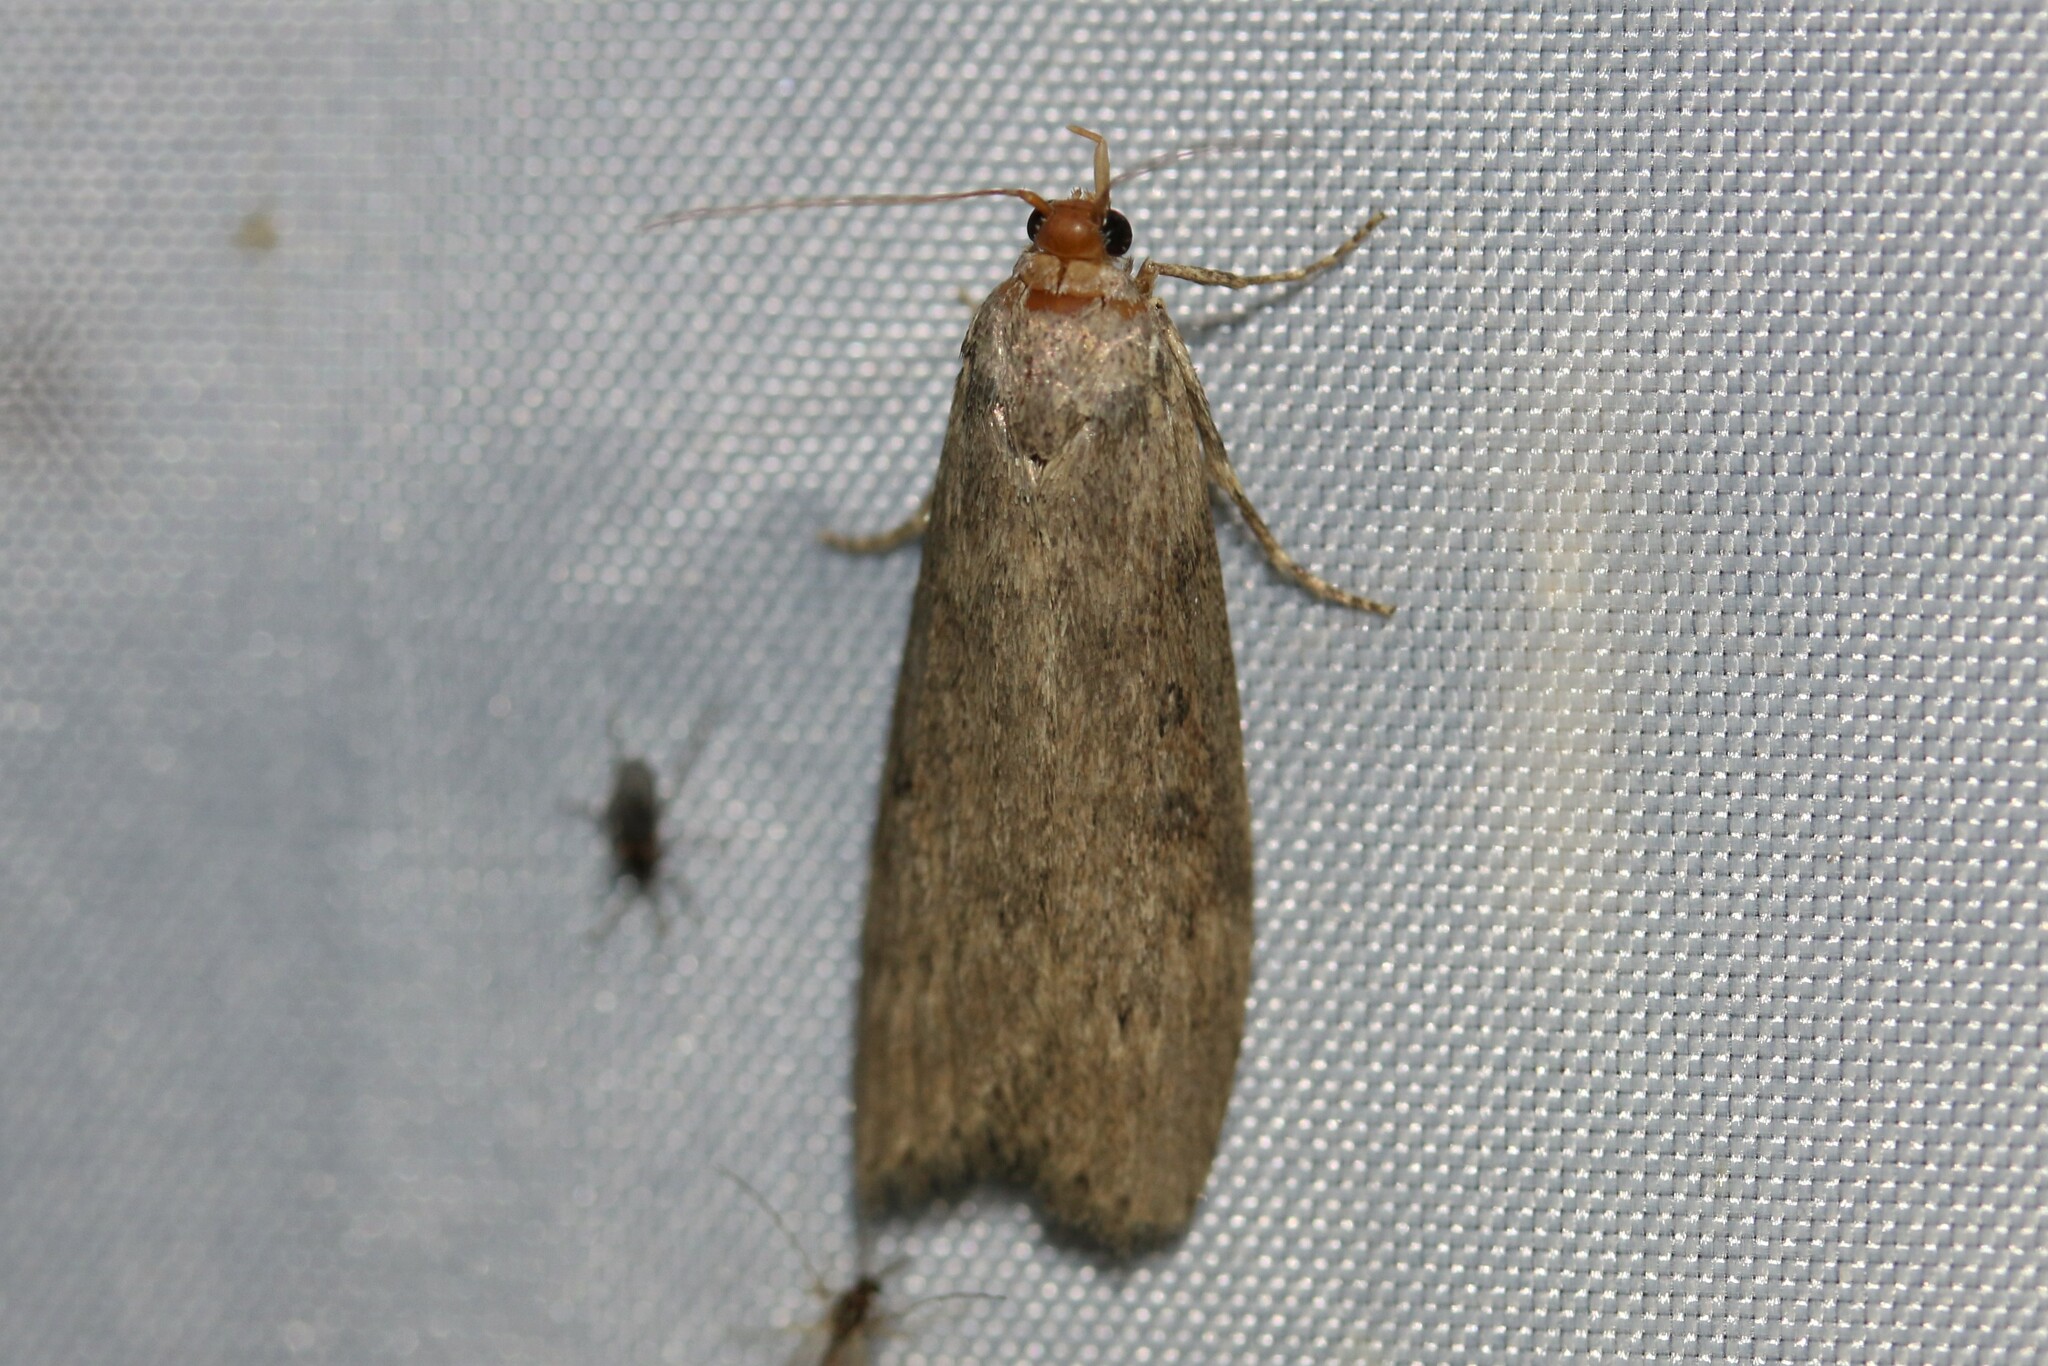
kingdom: Animalia
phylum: Arthropoda
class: Insecta
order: Lepidoptera
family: Pyralidae
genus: Lamoria
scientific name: Lamoria anella
